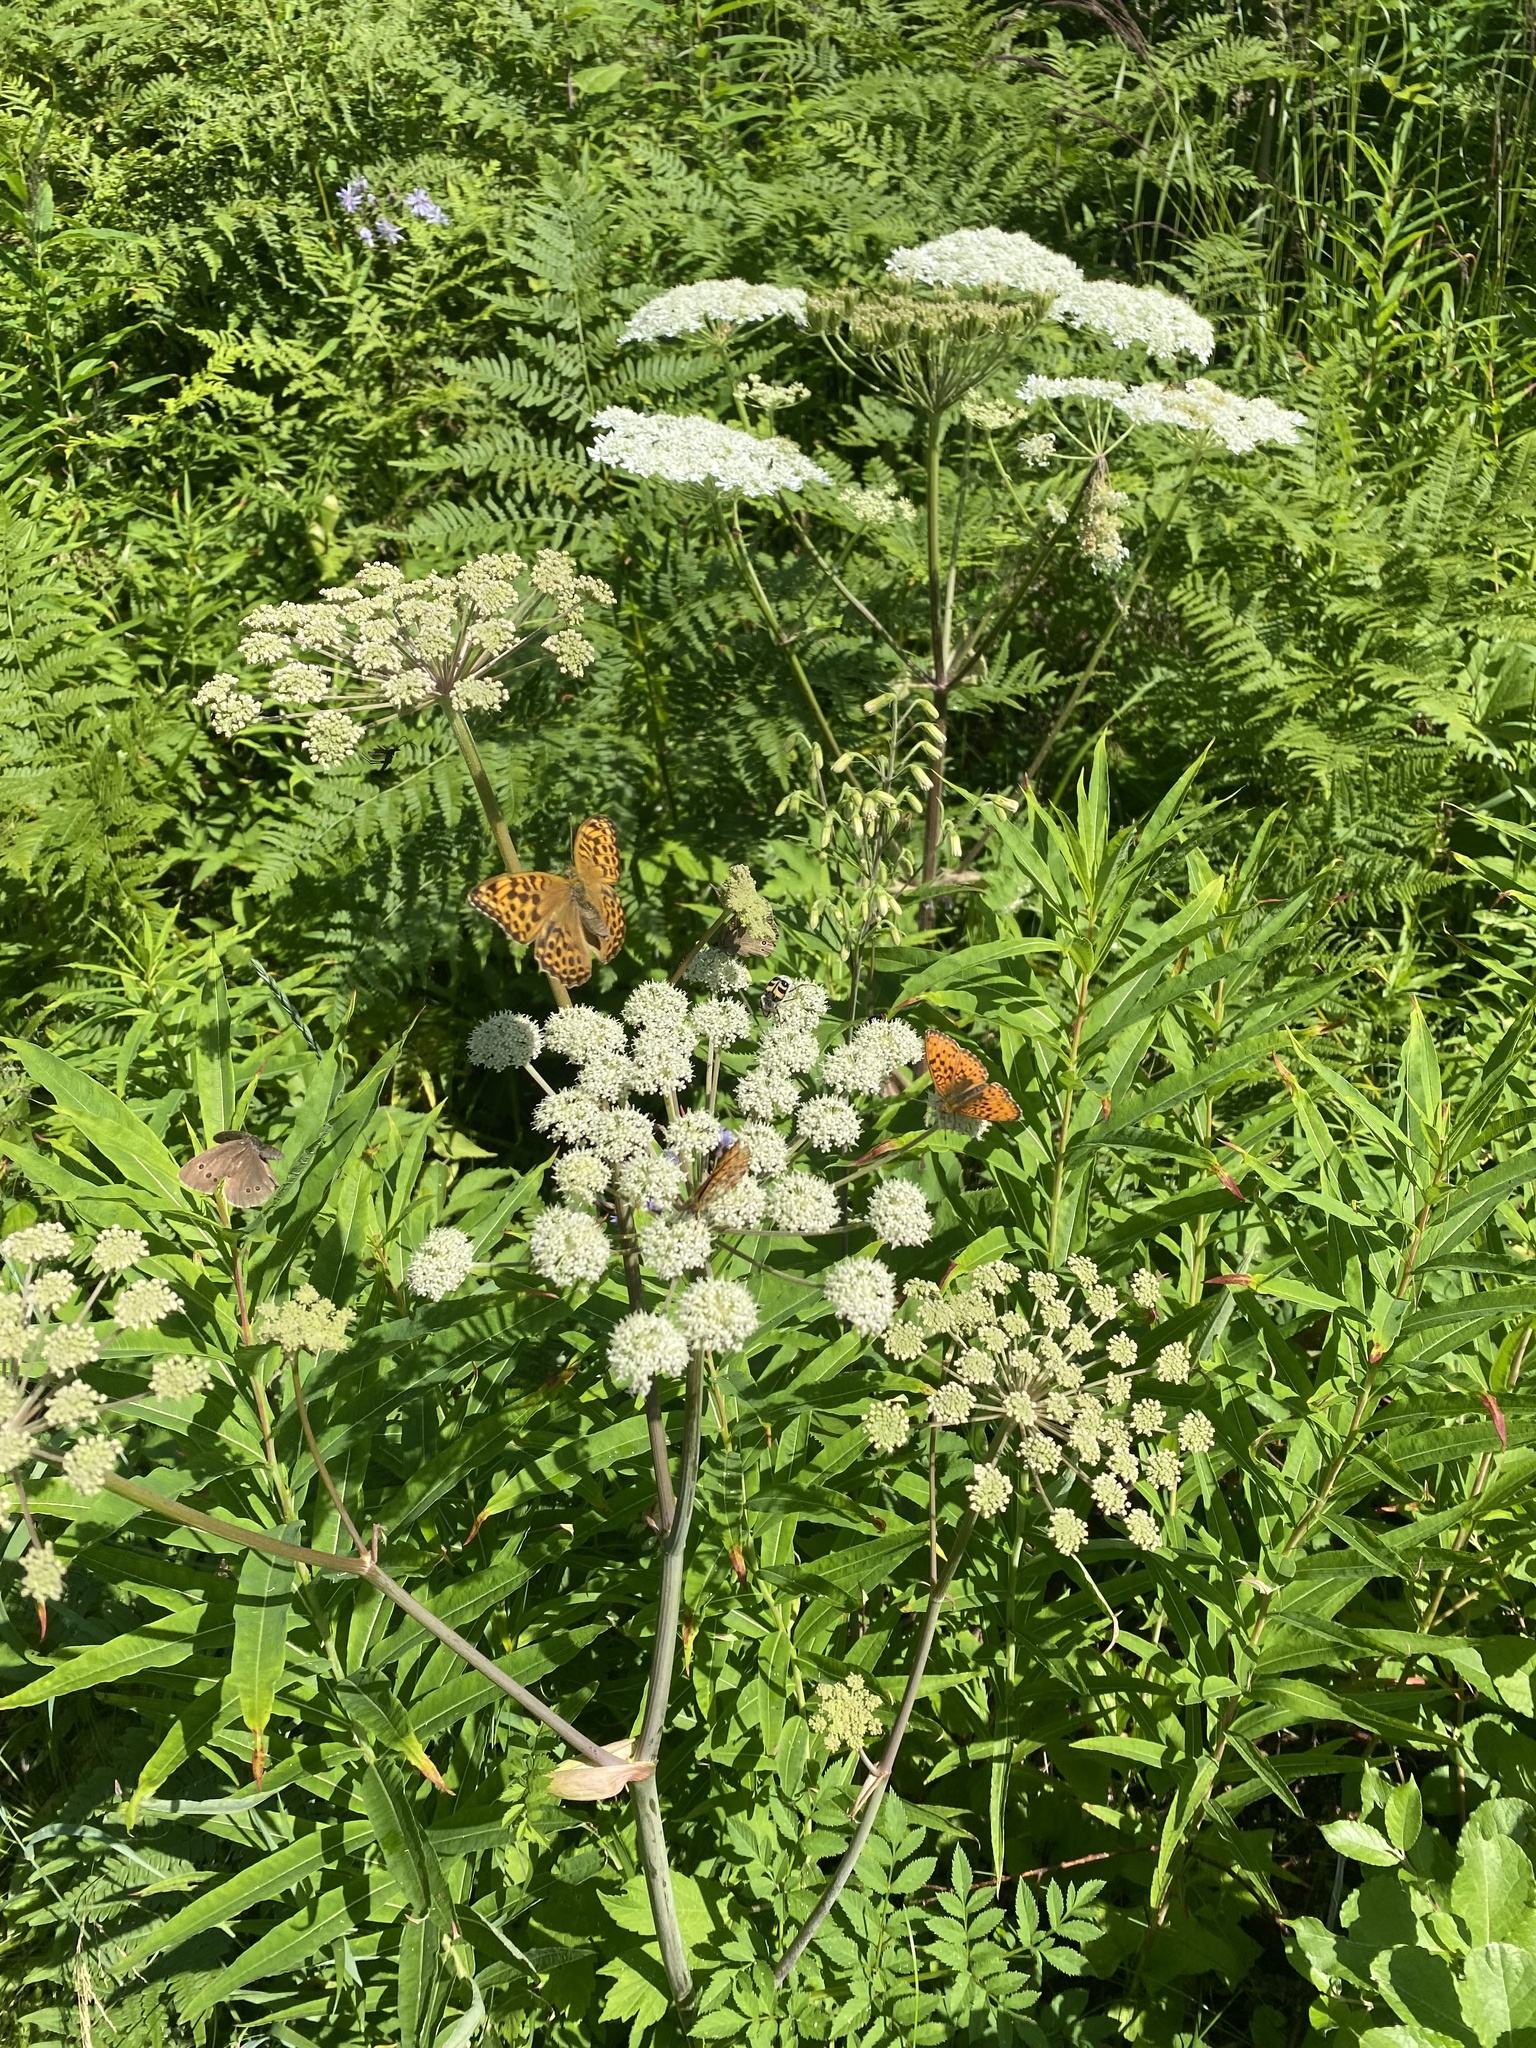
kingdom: Plantae
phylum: Tracheophyta
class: Magnoliopsida
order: Apiales
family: Apiaceae
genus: Angelica
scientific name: Angelica sylvestris
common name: Wild angelica
